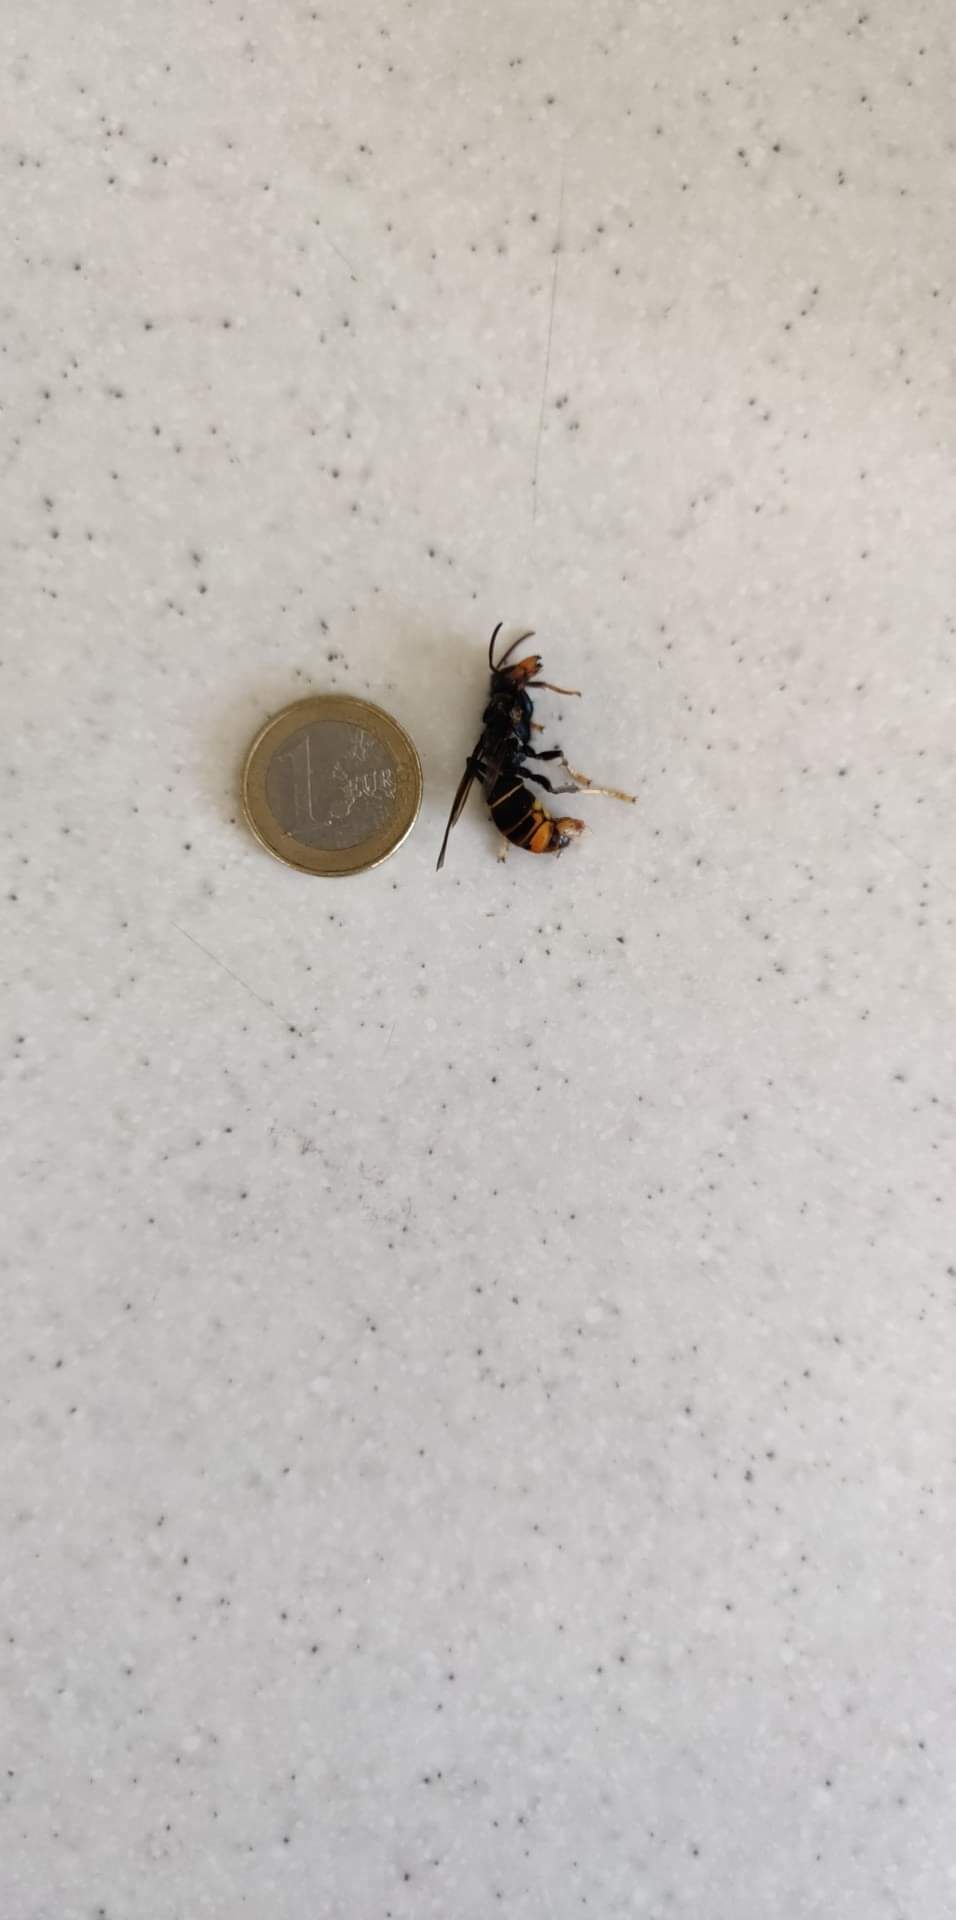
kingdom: Animalia
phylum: Arthropoda
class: Insecta
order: Hymenoptera
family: Vespidae
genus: Vespa
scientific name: Vespa velutina
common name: Asian hornet
